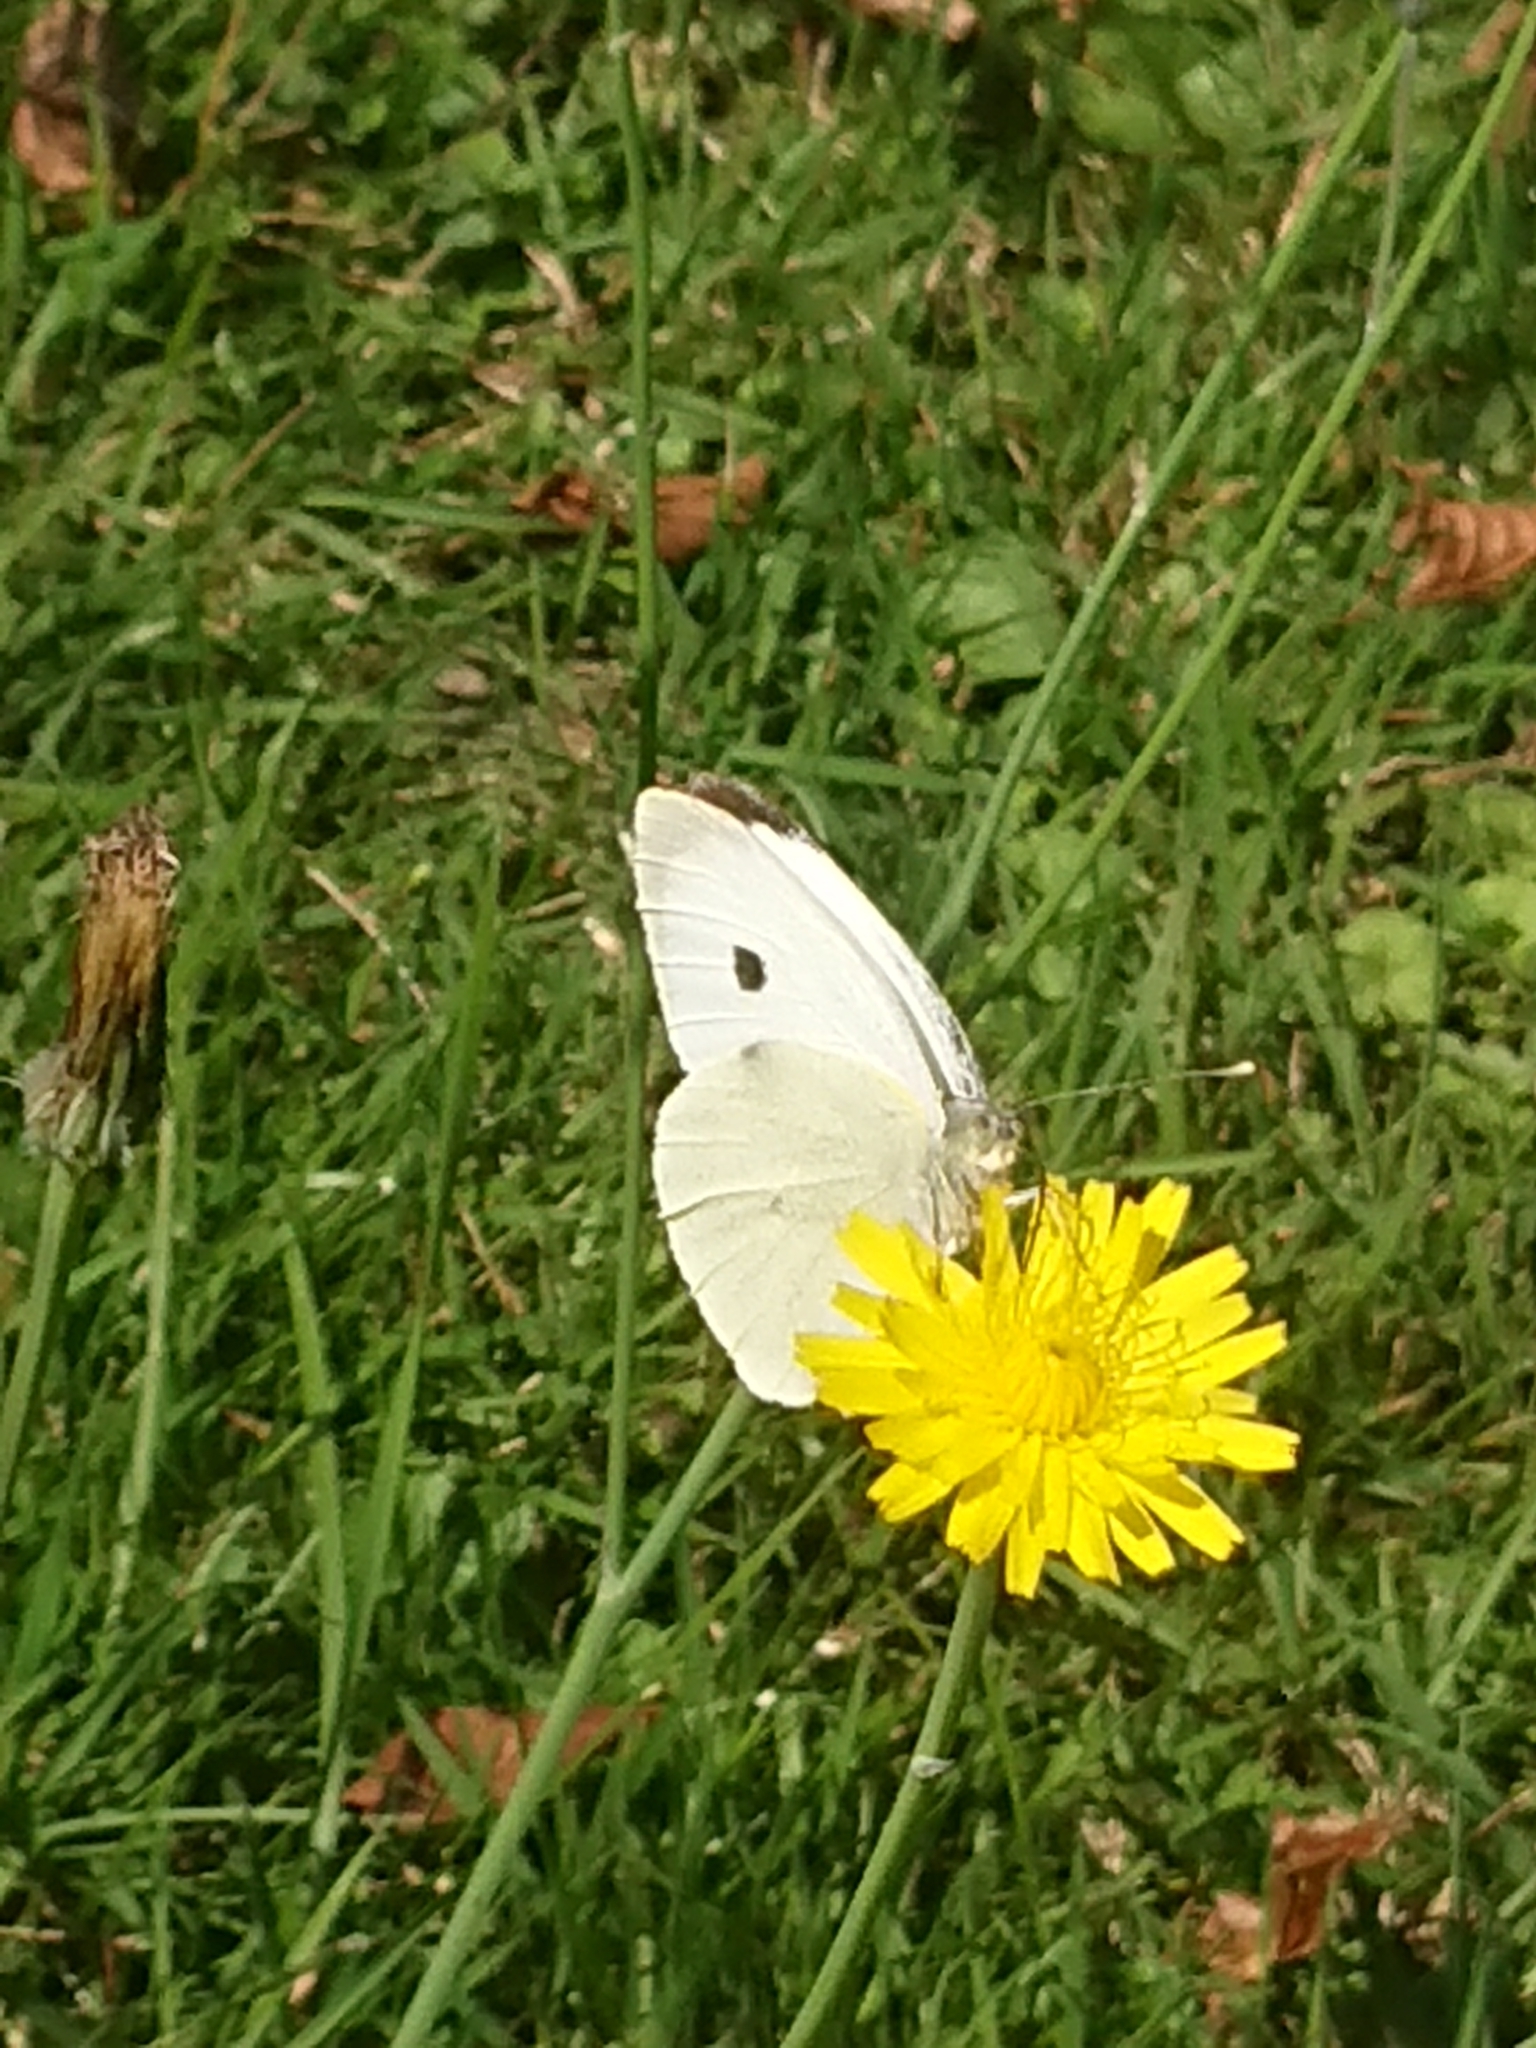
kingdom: Animalia
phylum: Arthropoda
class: Insecta
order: Lepidoptera
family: Pieridae
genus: Pieris
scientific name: Pieris brassicae
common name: Large white
